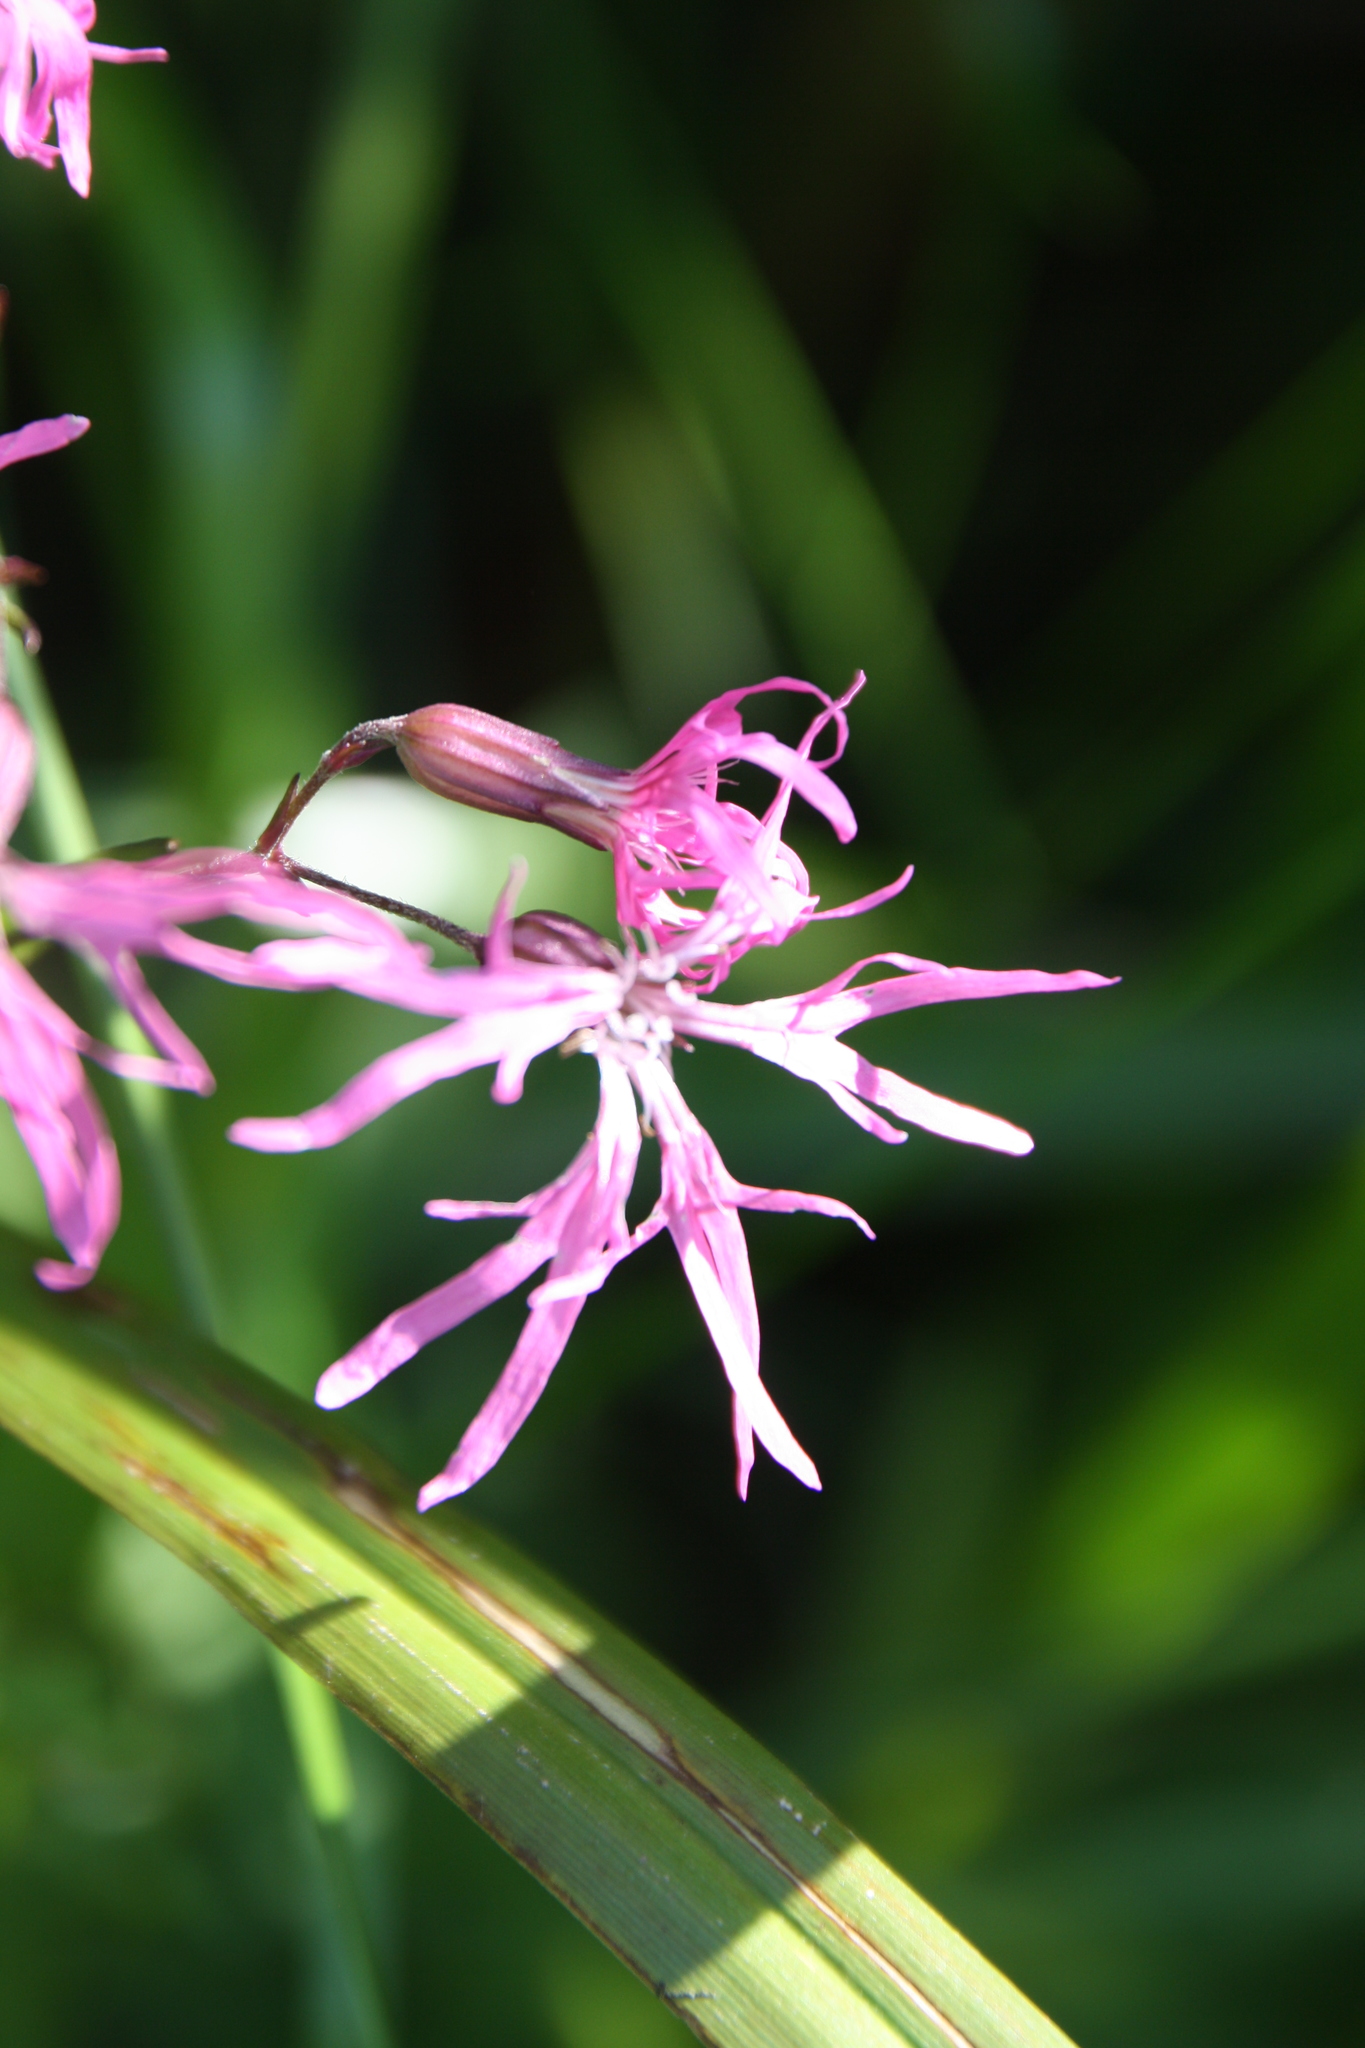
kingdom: Plantae
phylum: Tracheophyta
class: Magnoliopsida
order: Caryophyllales
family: Caryophyllaceae
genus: Silene
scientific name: Silene flos-cuculi
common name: Ragged-robin
